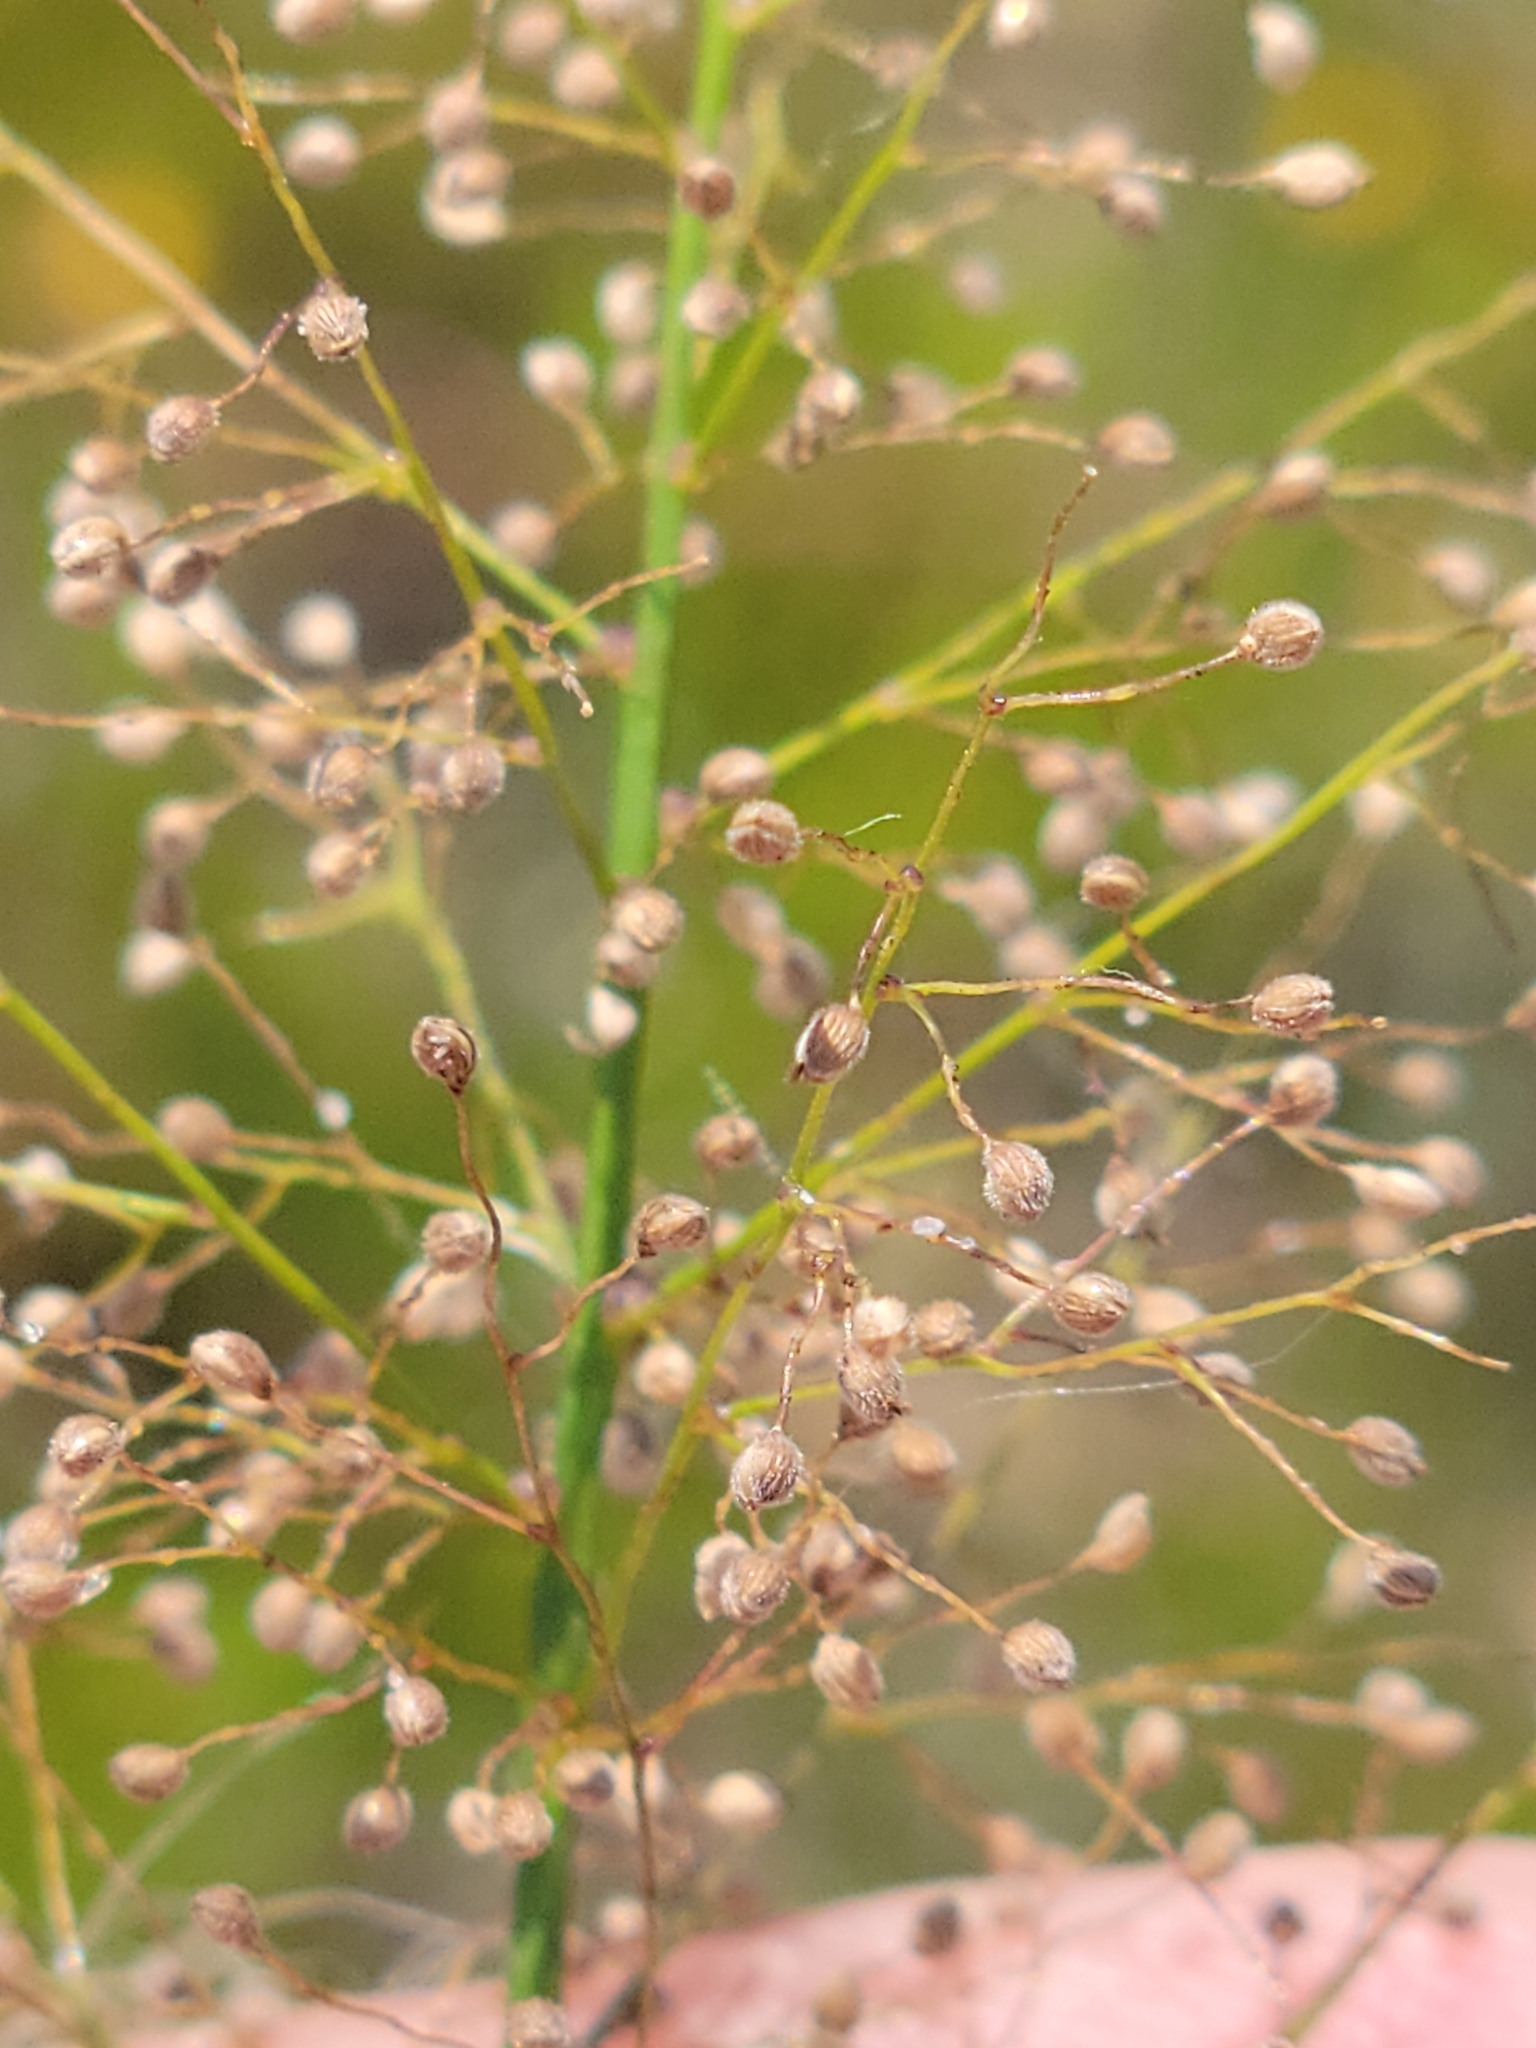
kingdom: Plantae
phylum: Tracheophyta
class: Liliopsida
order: Poales
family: Poaceae
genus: Dichanthelium
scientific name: Dichanthelium erectifolium
